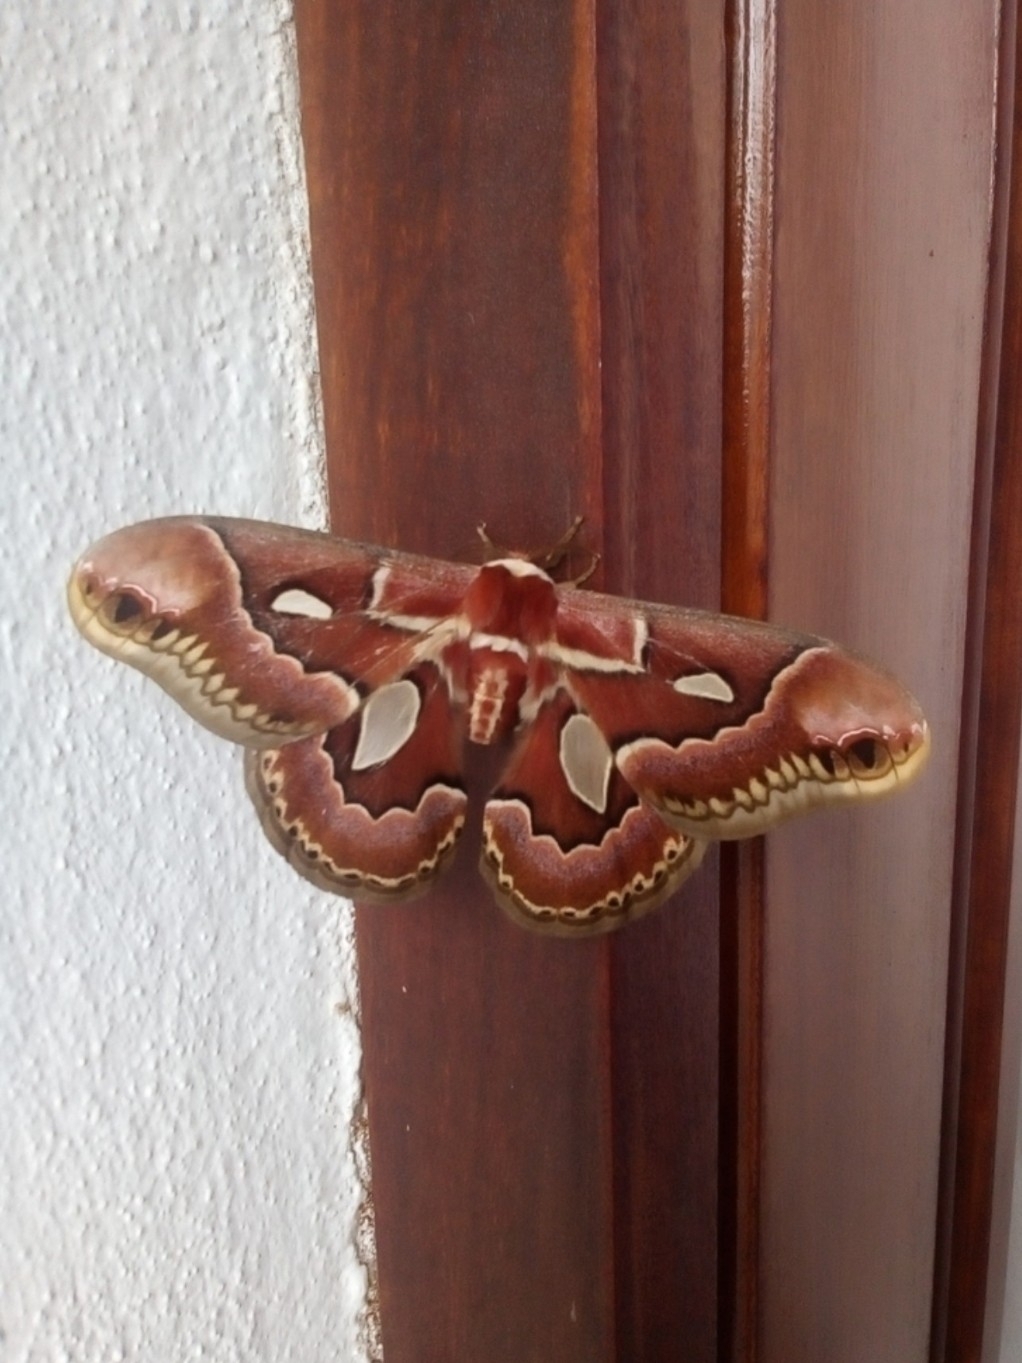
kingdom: Animalia
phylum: Arthropoda
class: Insecta
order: Lepidoptera
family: Saturniidae
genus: Rothschildia
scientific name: Rothschildia jacobaeae
